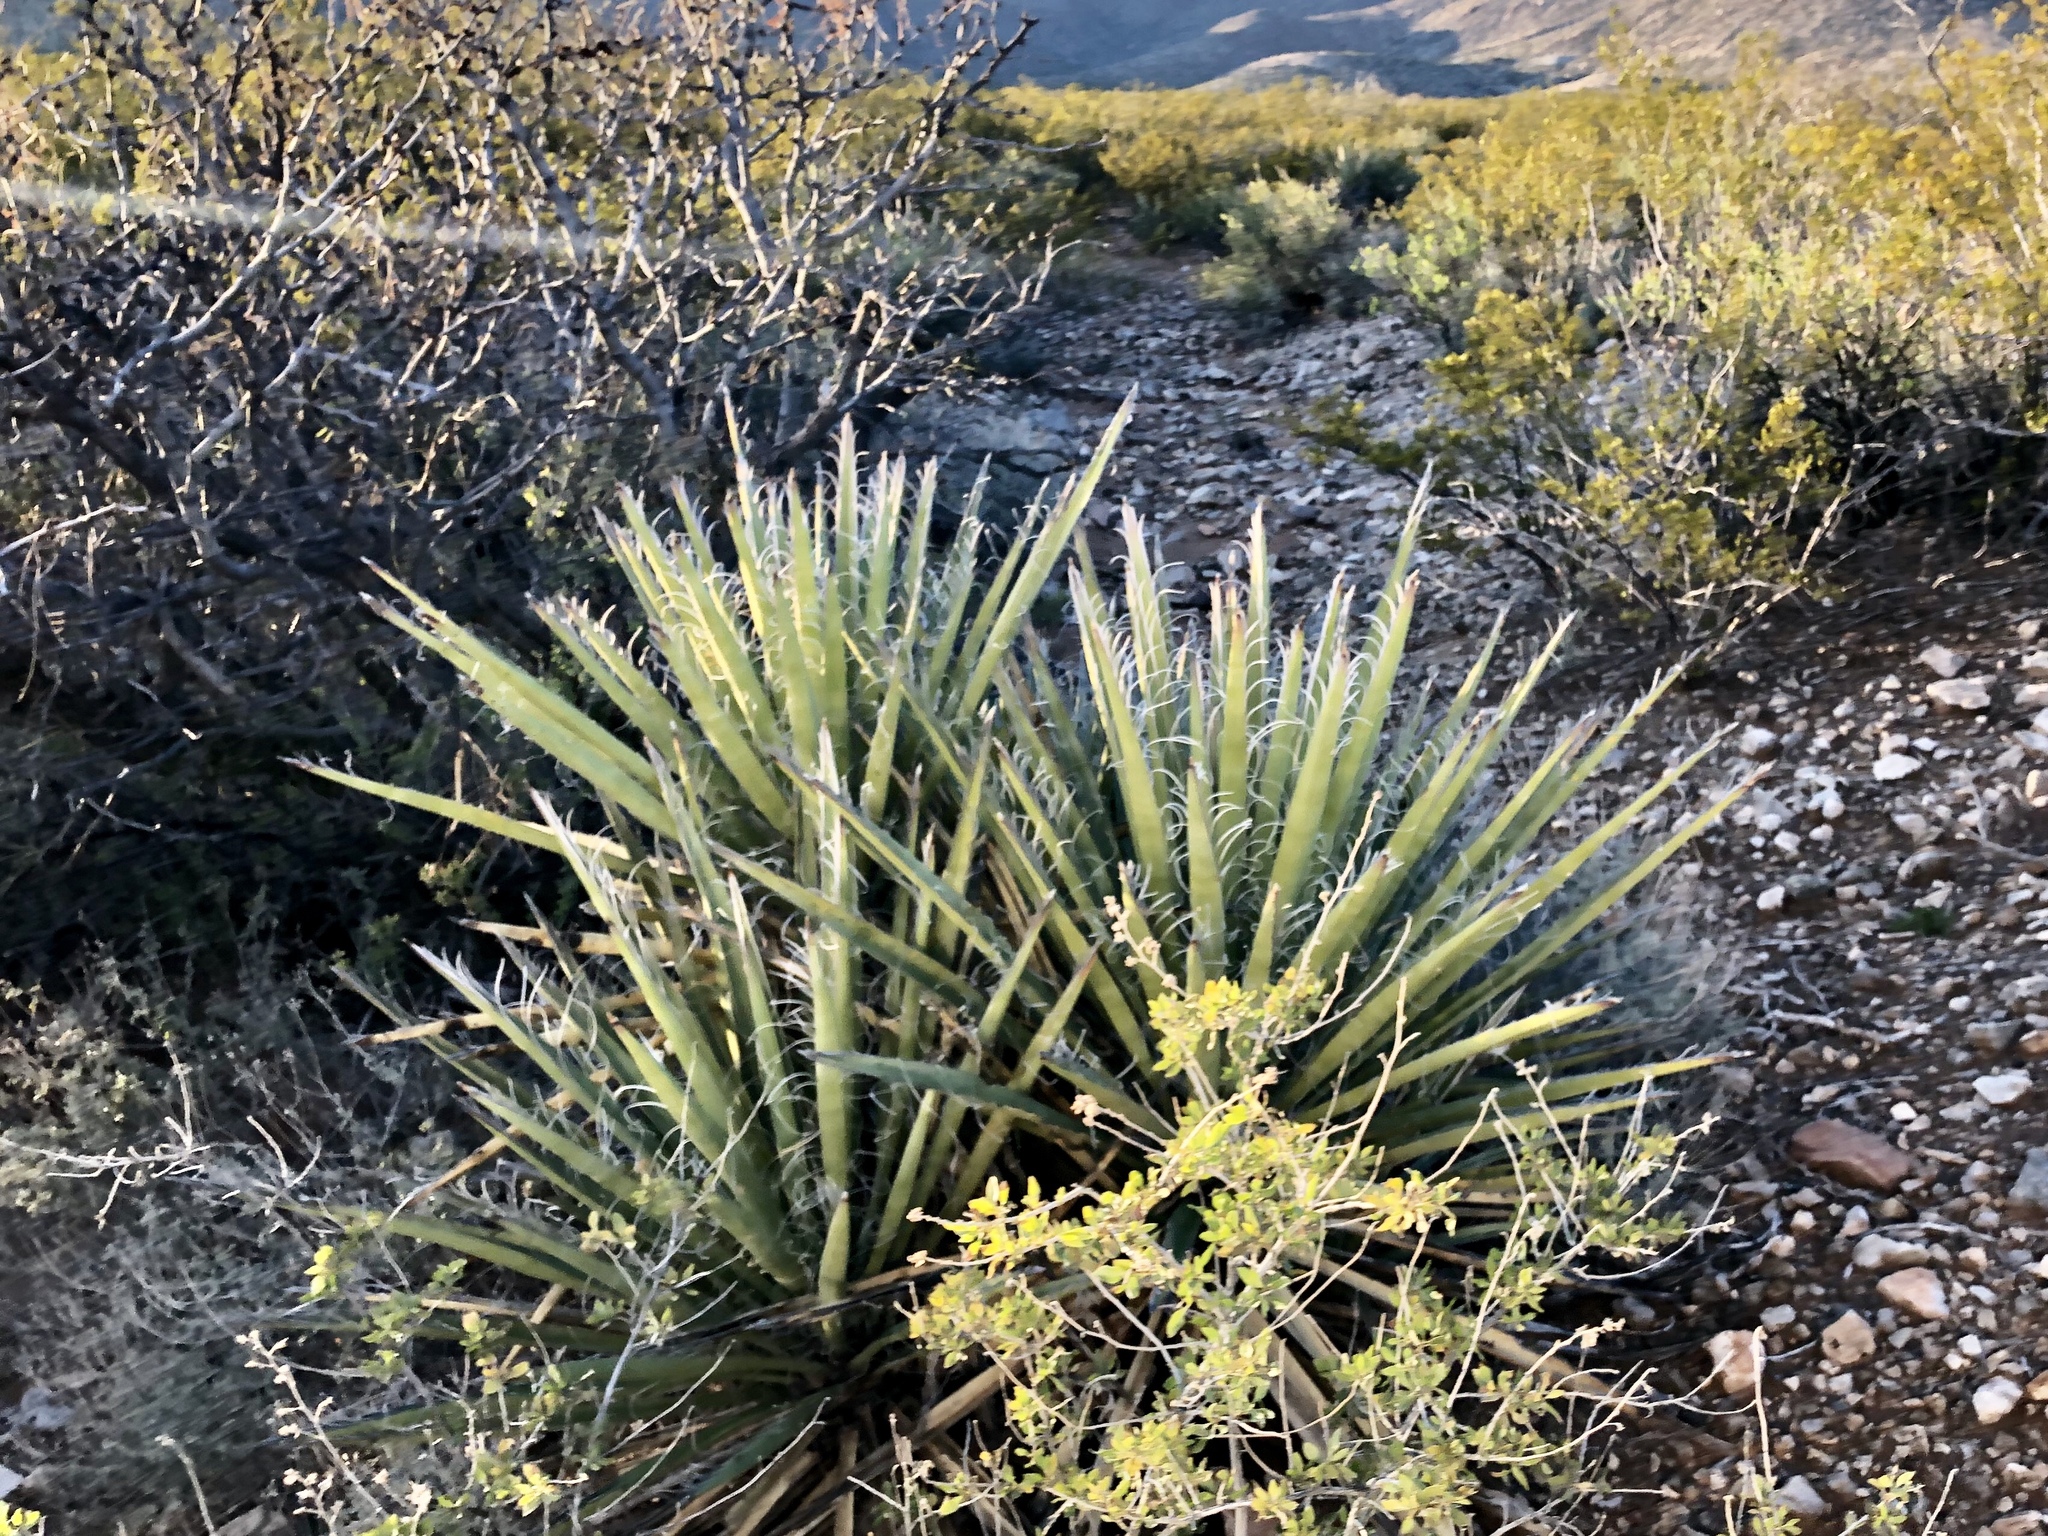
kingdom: Plantae
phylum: Tracheophyta
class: Liliopsida
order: Asparagales
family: Asparagaceae
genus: Yucca
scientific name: Yucca baccata
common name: Banana yucca
